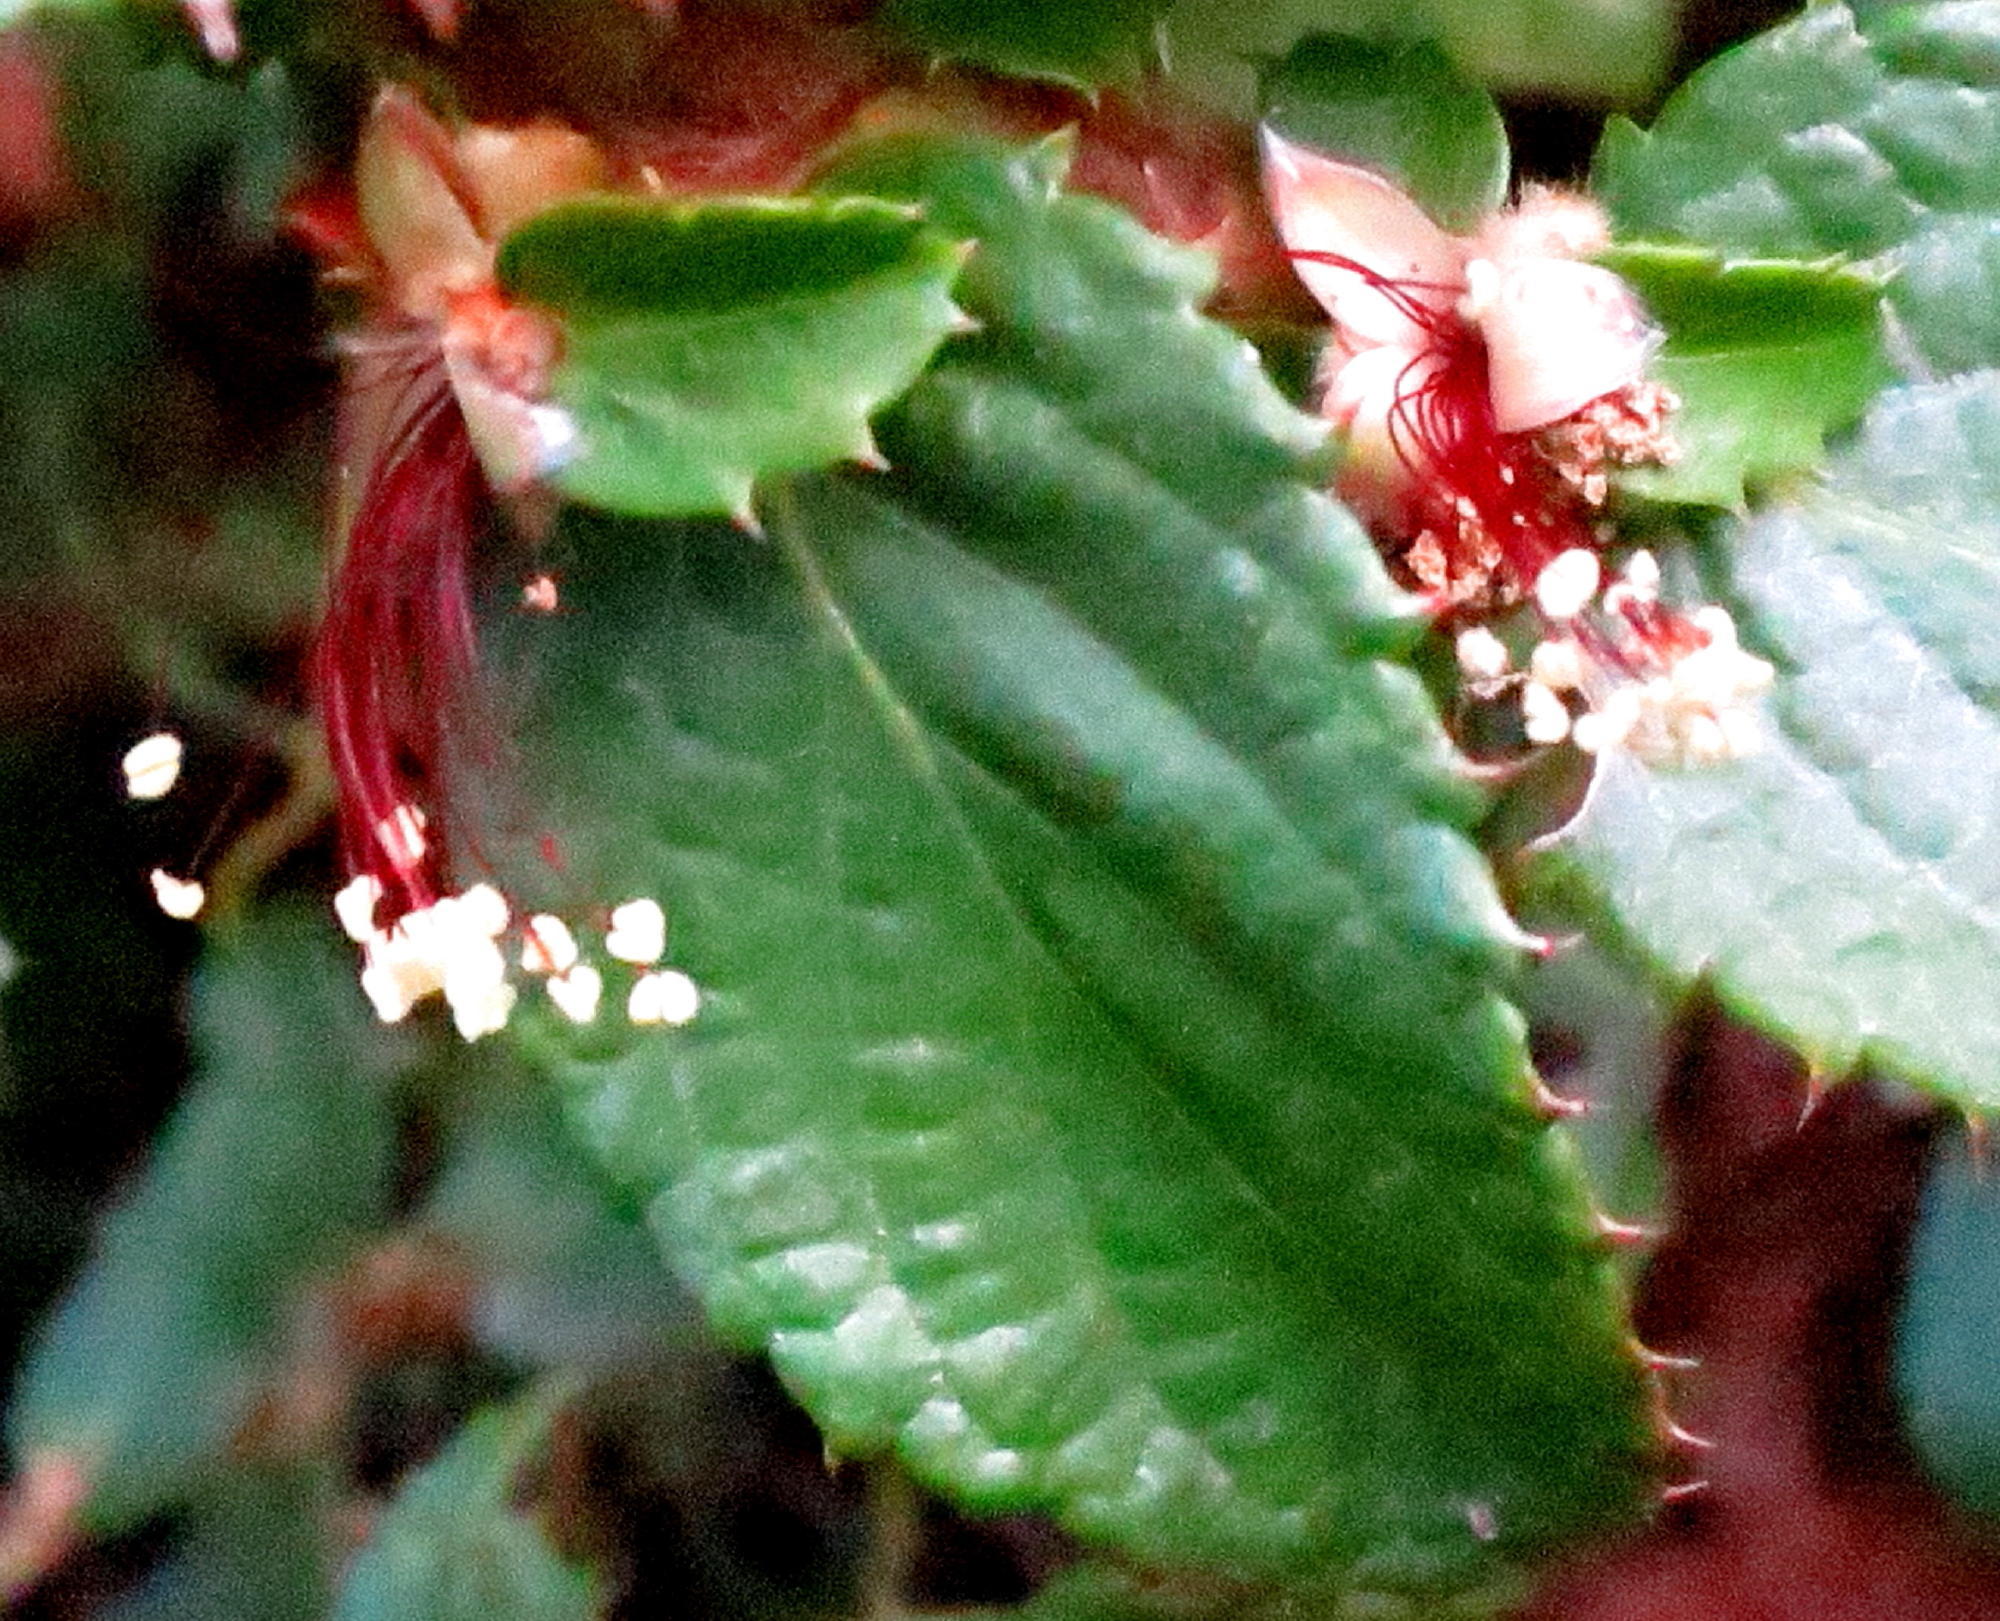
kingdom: Plantae
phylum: Tracheophyta
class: Magnoliopsida
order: Rosales
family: Rosaceae
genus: Cliffortia
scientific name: Cliffortia hirsuta
